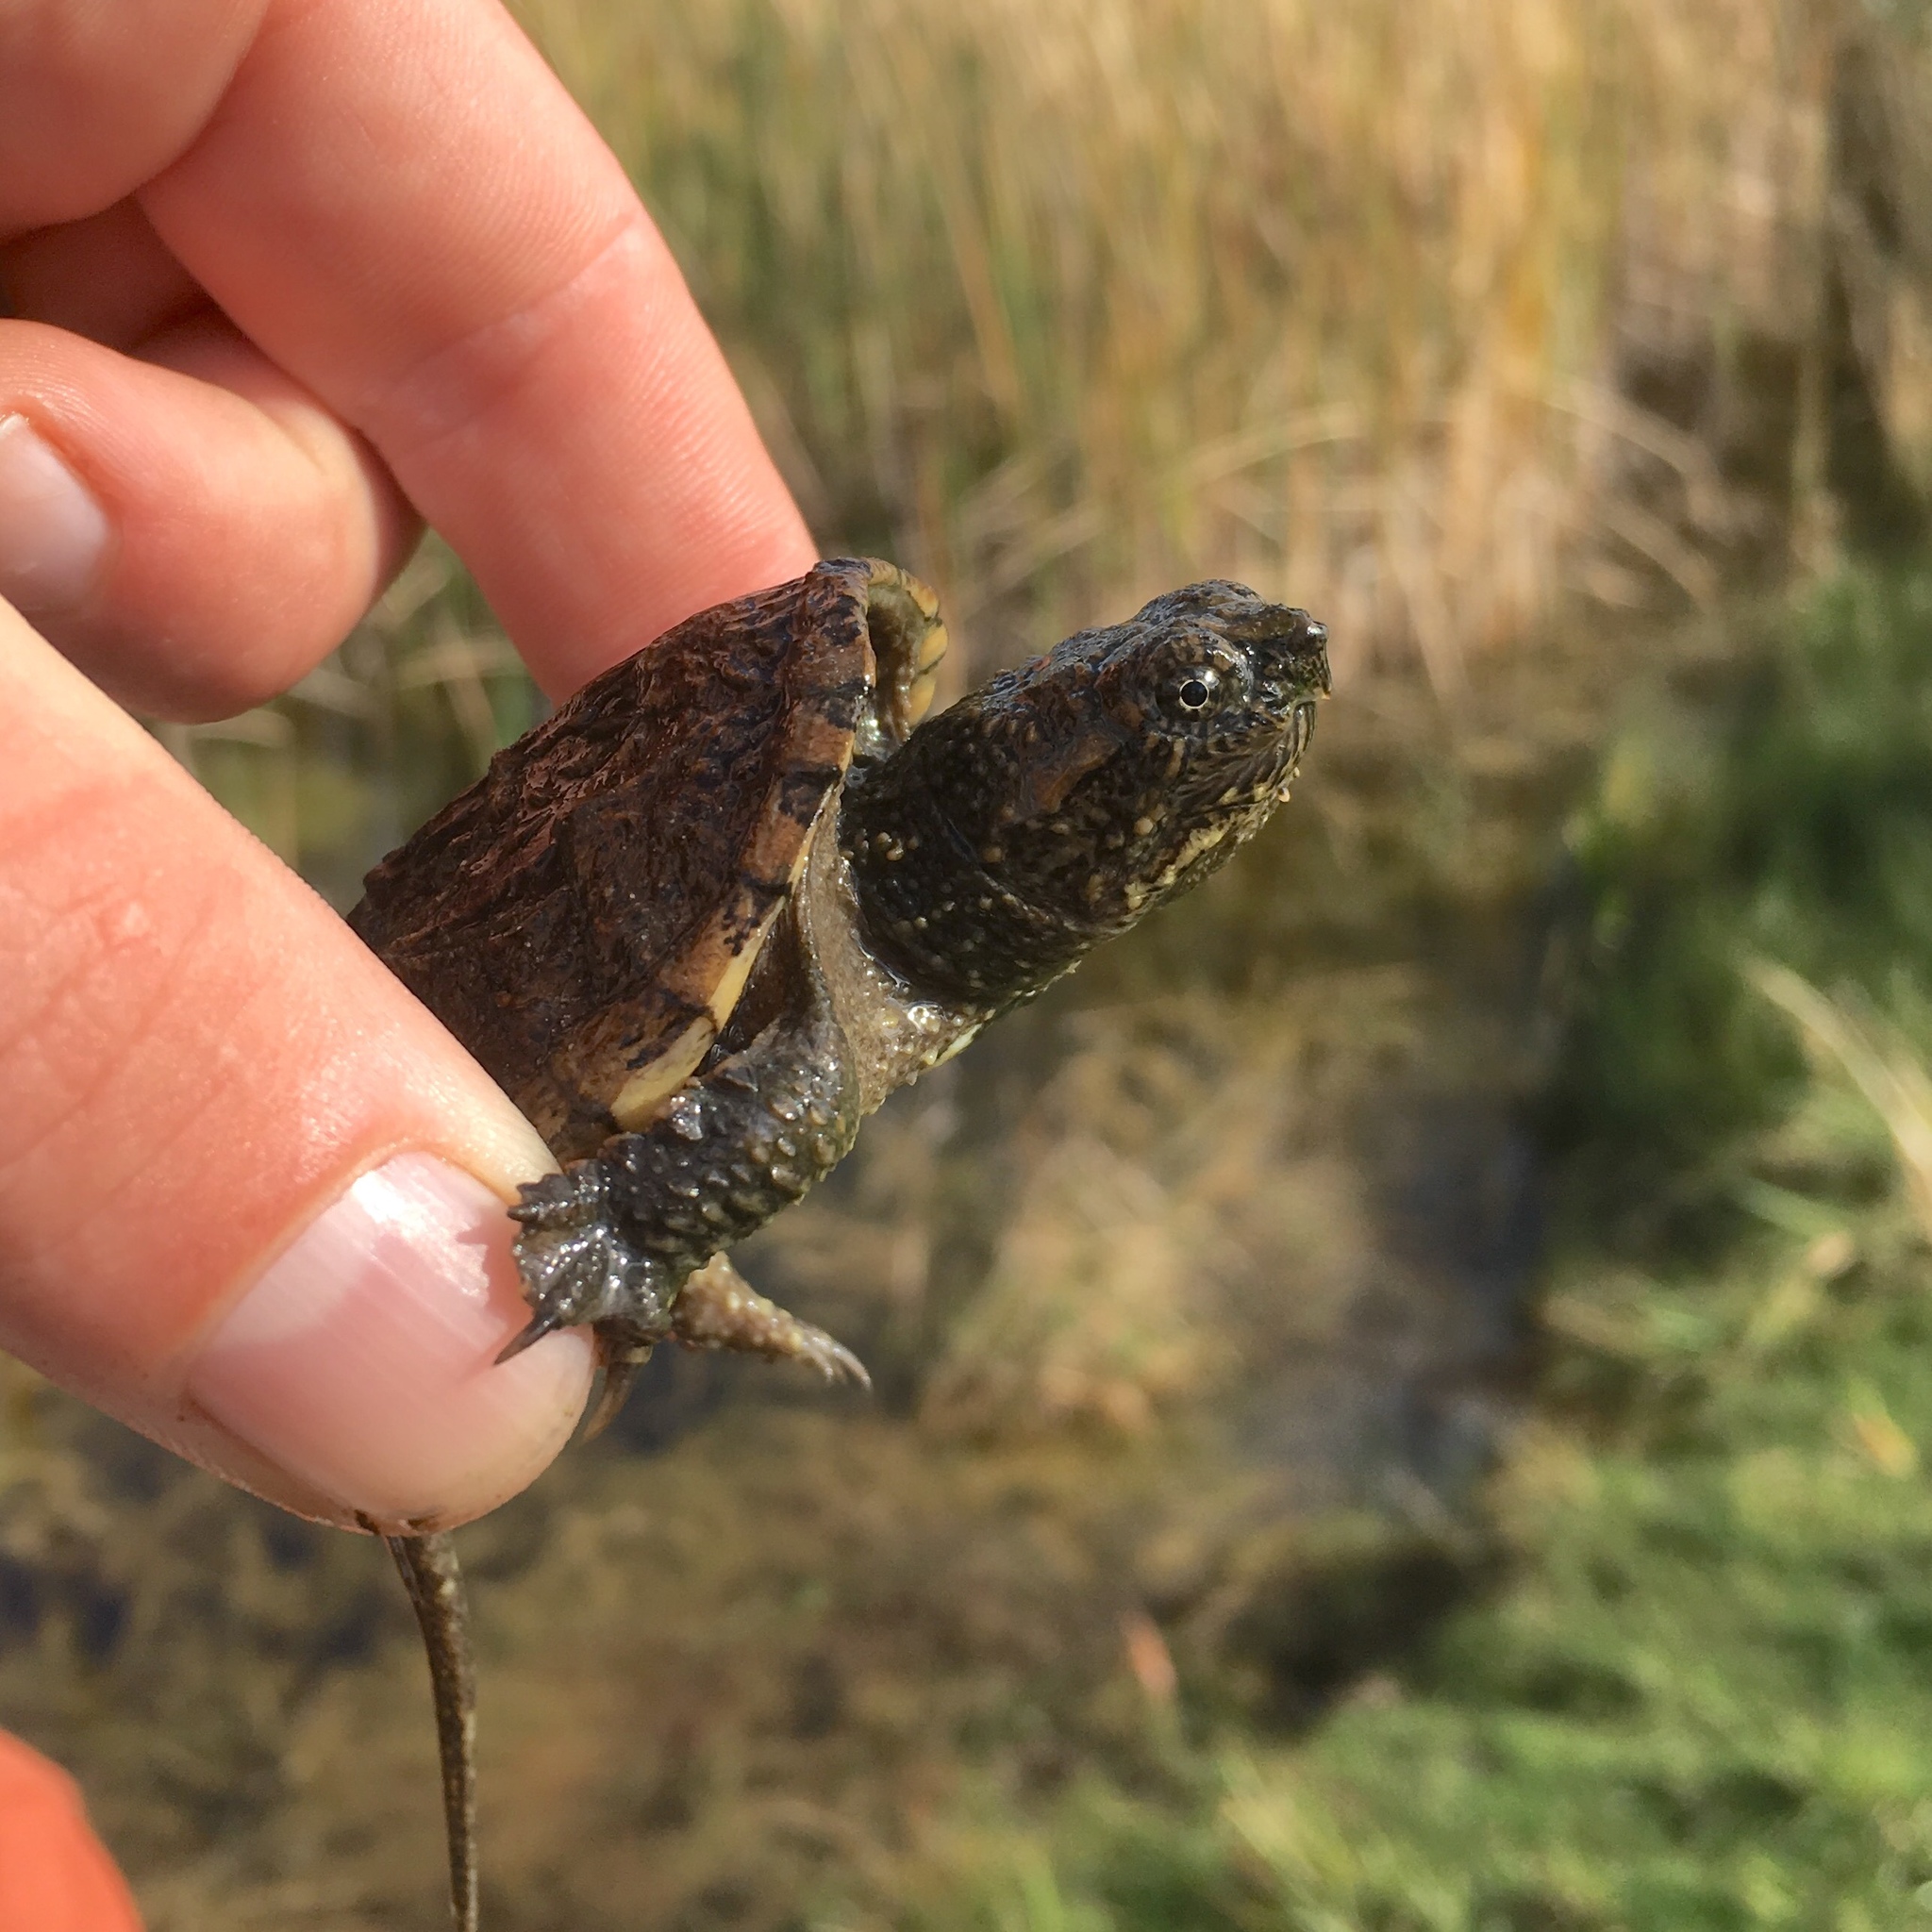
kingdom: Animalia
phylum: Chordata
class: Testudines
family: Chelydridae
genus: Chelydra
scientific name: Chelydra serpentina
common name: Common snapping turtle
